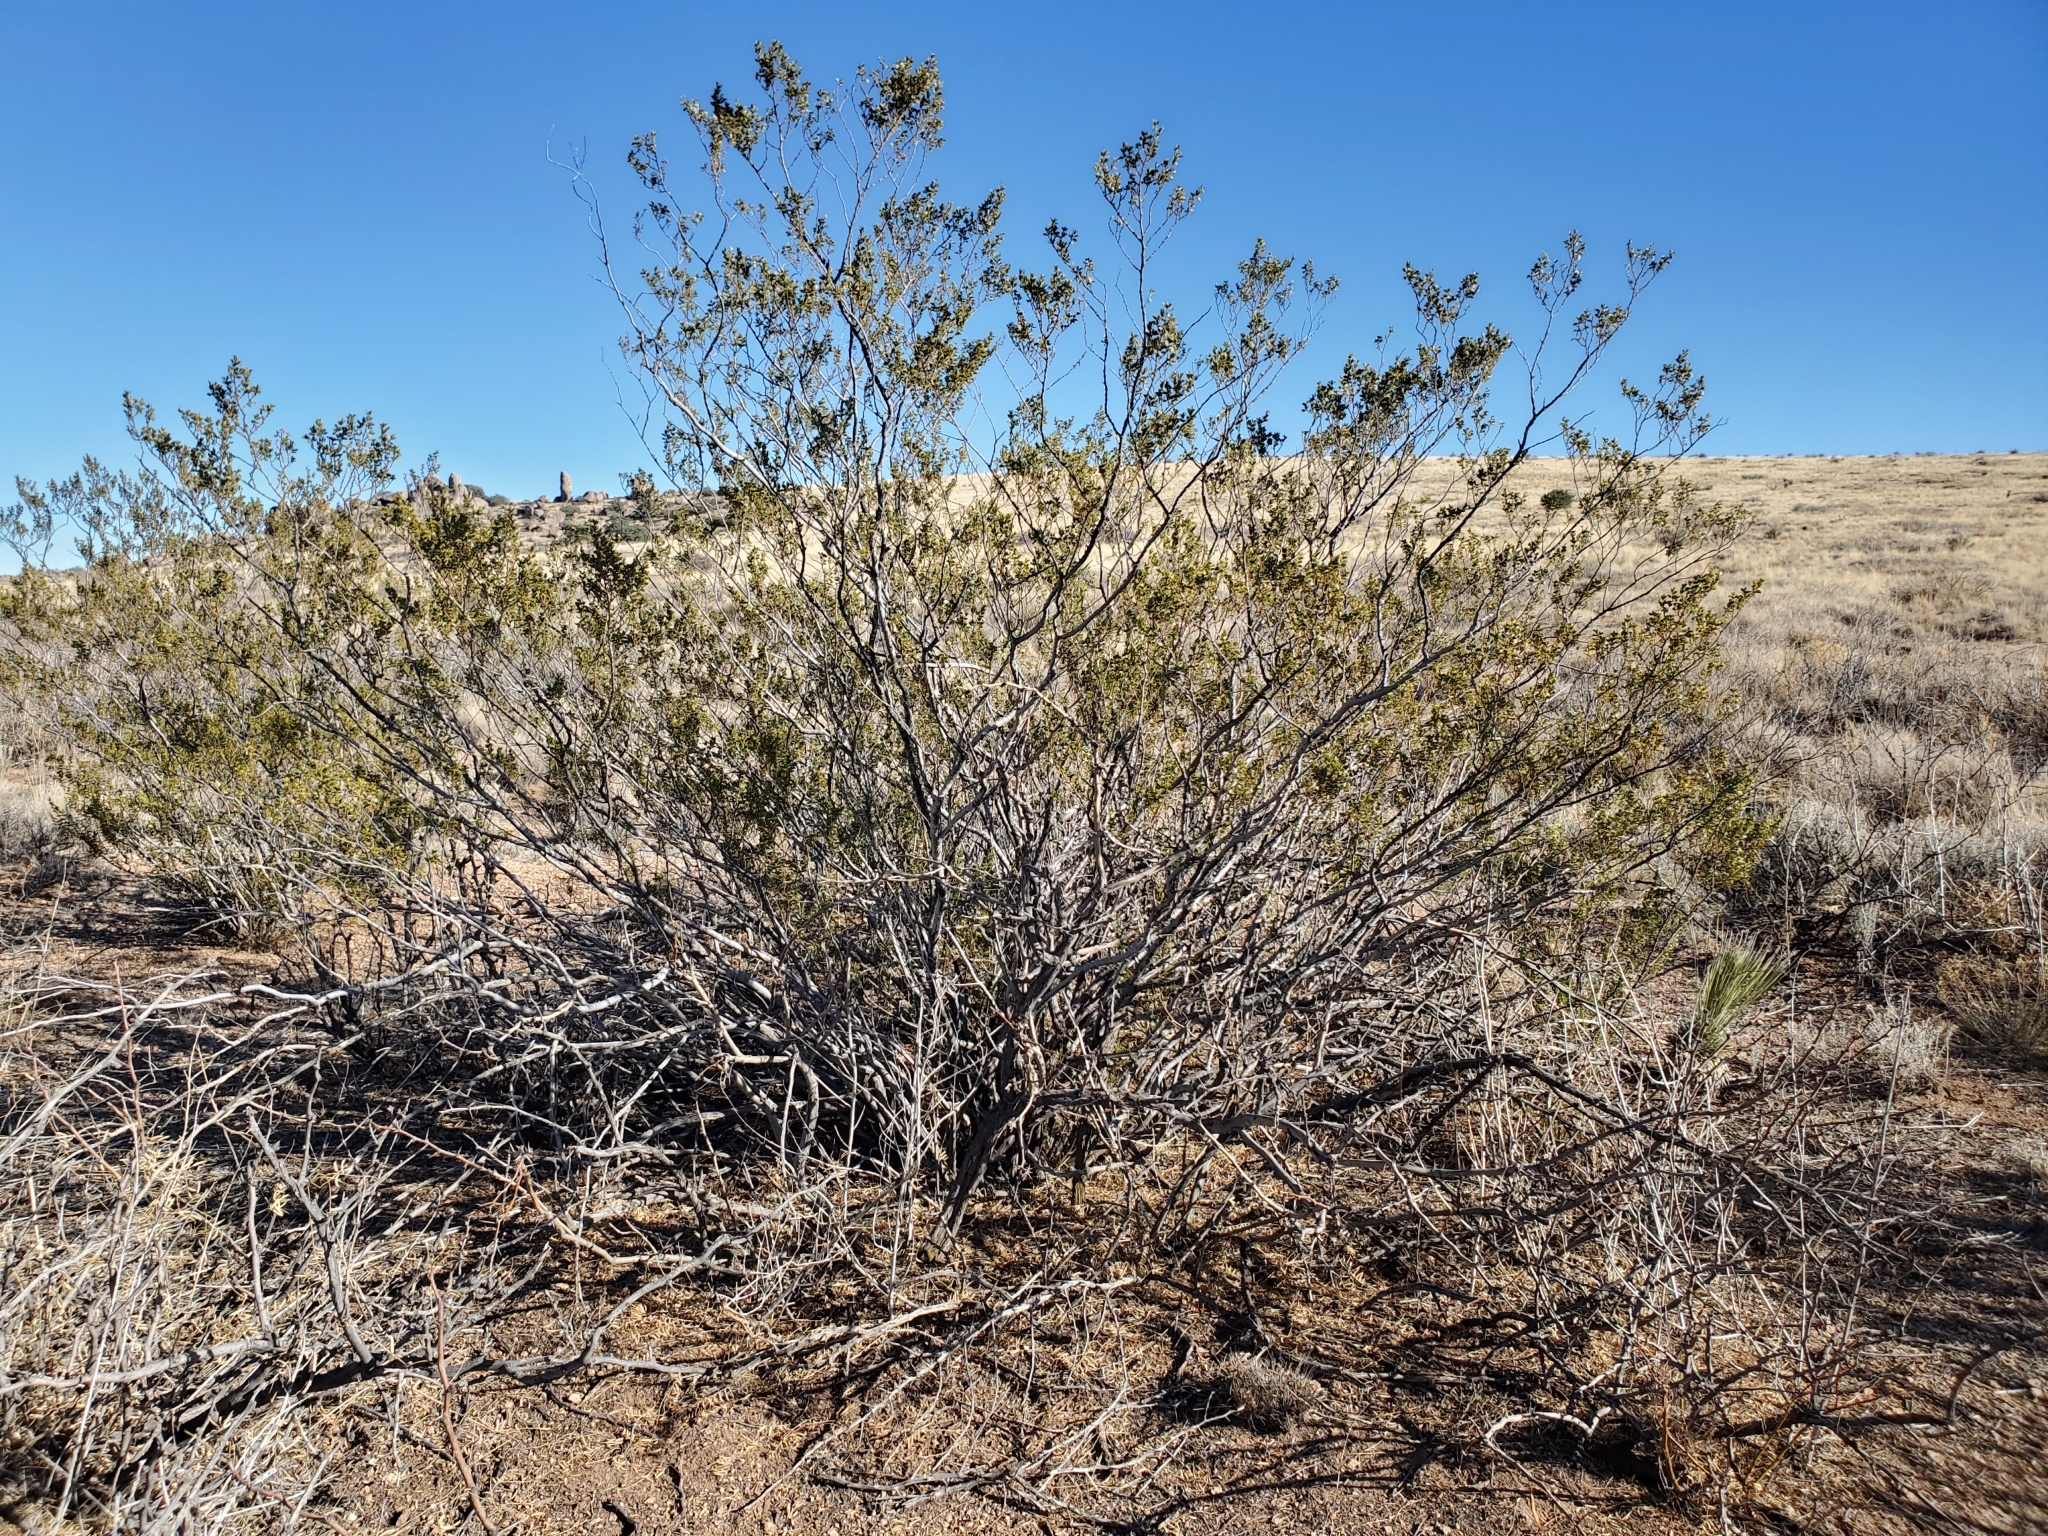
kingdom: Plantae
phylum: Tracheophyta
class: Magnoliopsida
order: Zygophyllales
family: Zygophyllaceae
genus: Larrea
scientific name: Larrea tridentata
